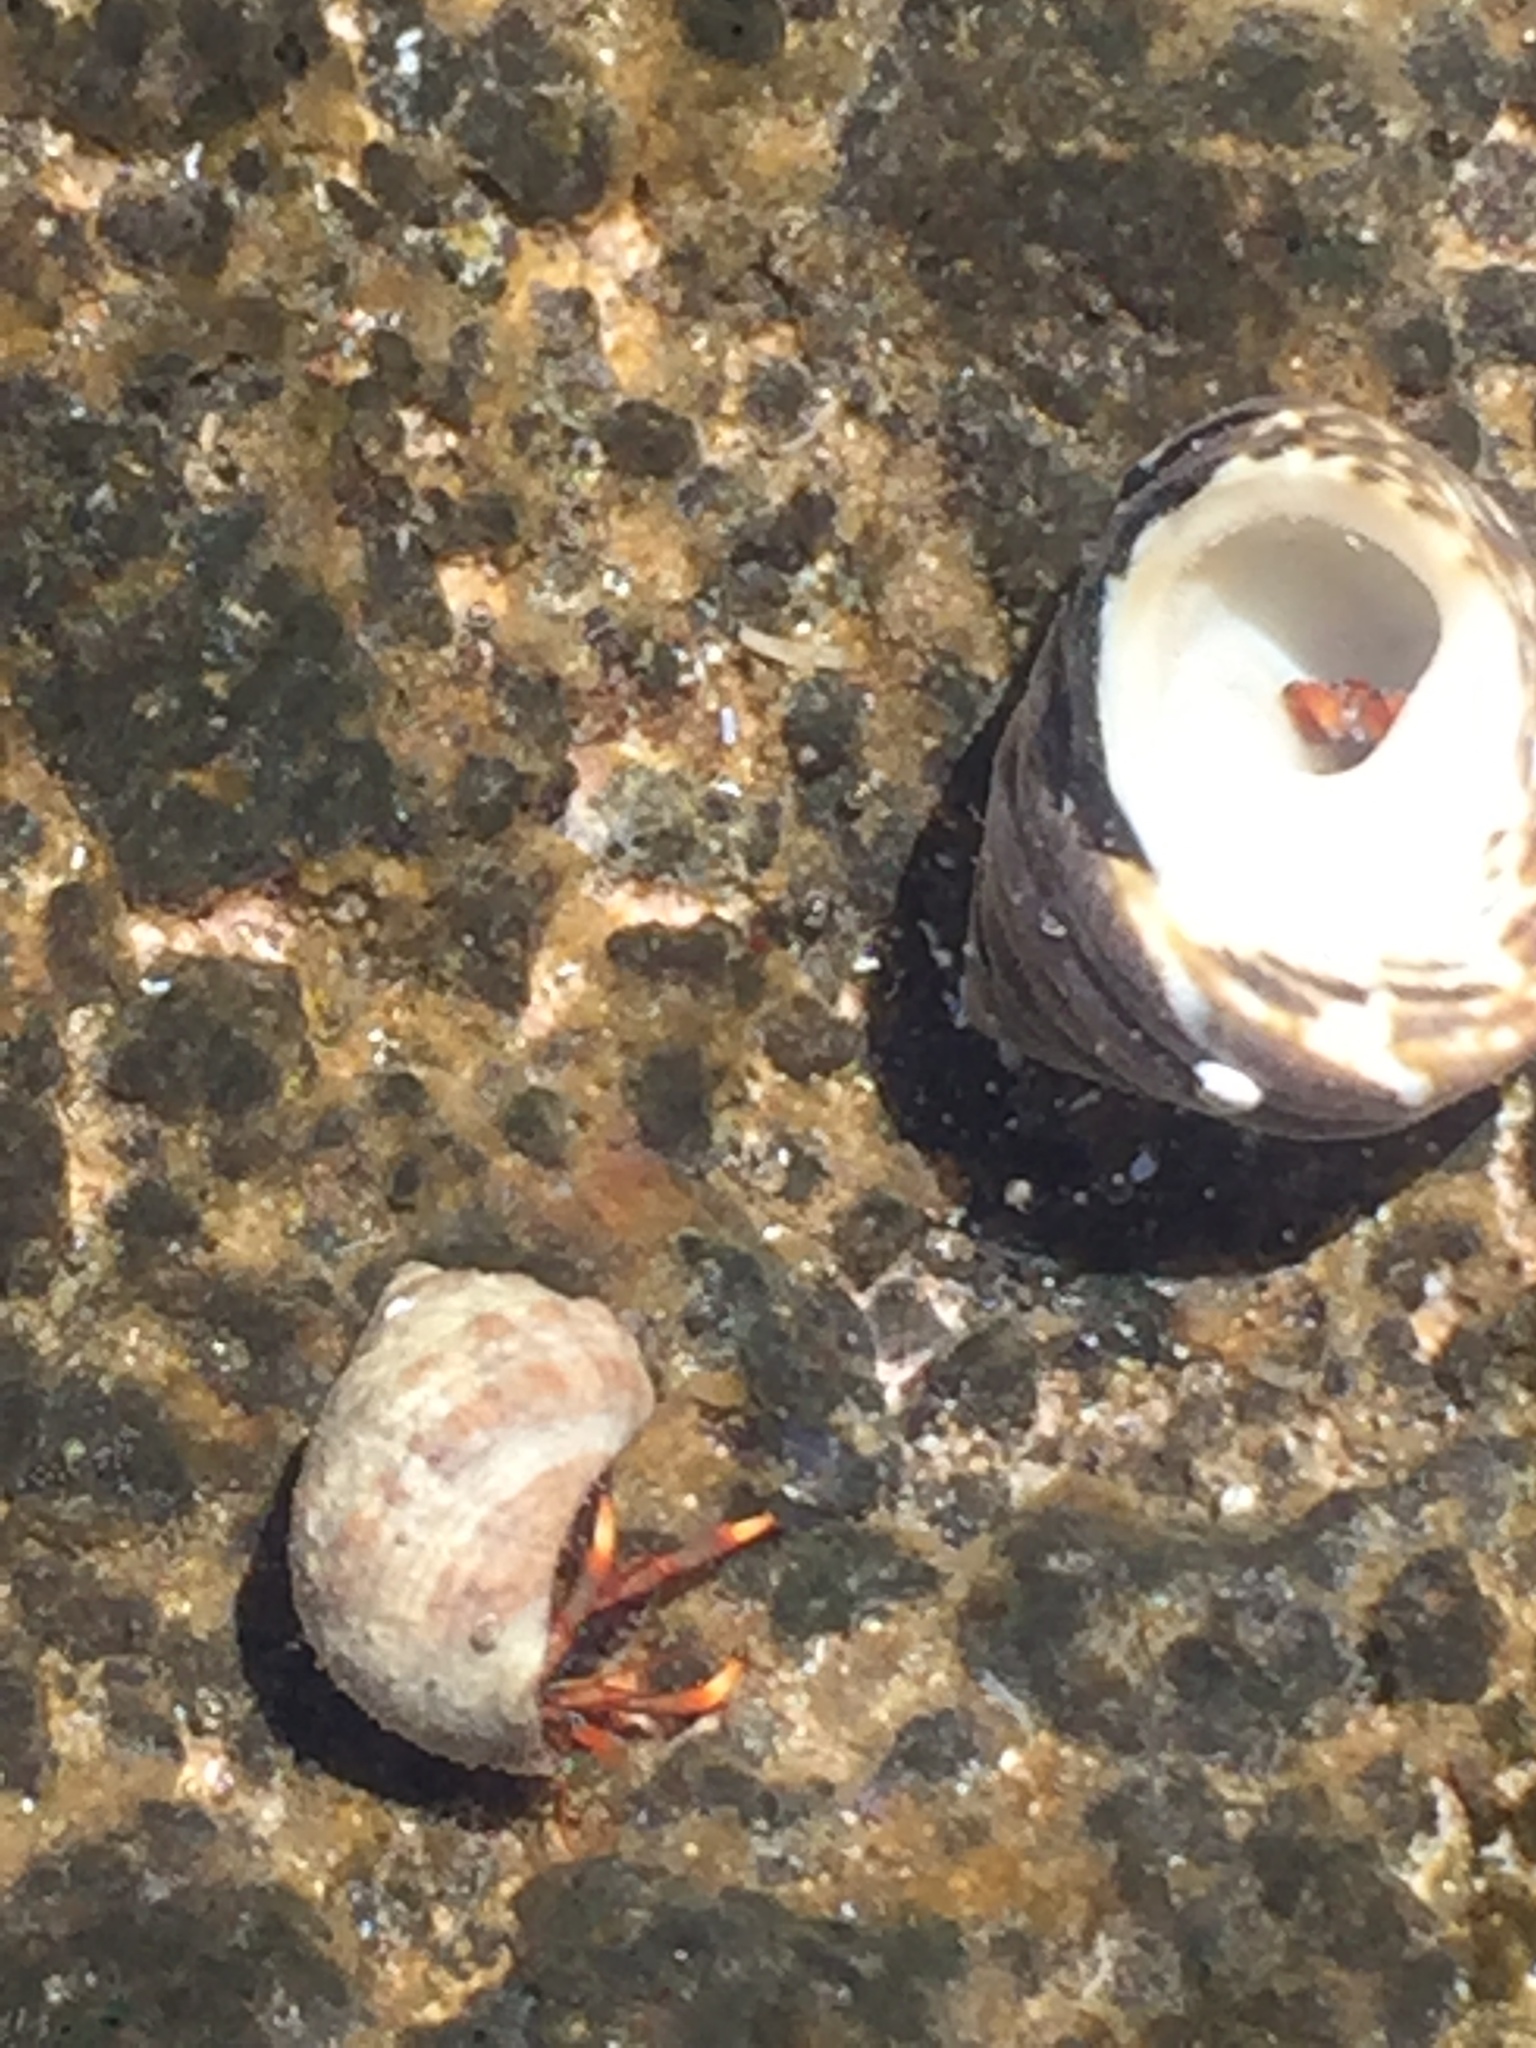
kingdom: Animalia
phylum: Arthropoda
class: Malacostraca
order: Decapoda
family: Diogenidae
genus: Clibanarius
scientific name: Clibanarius aequabilis
